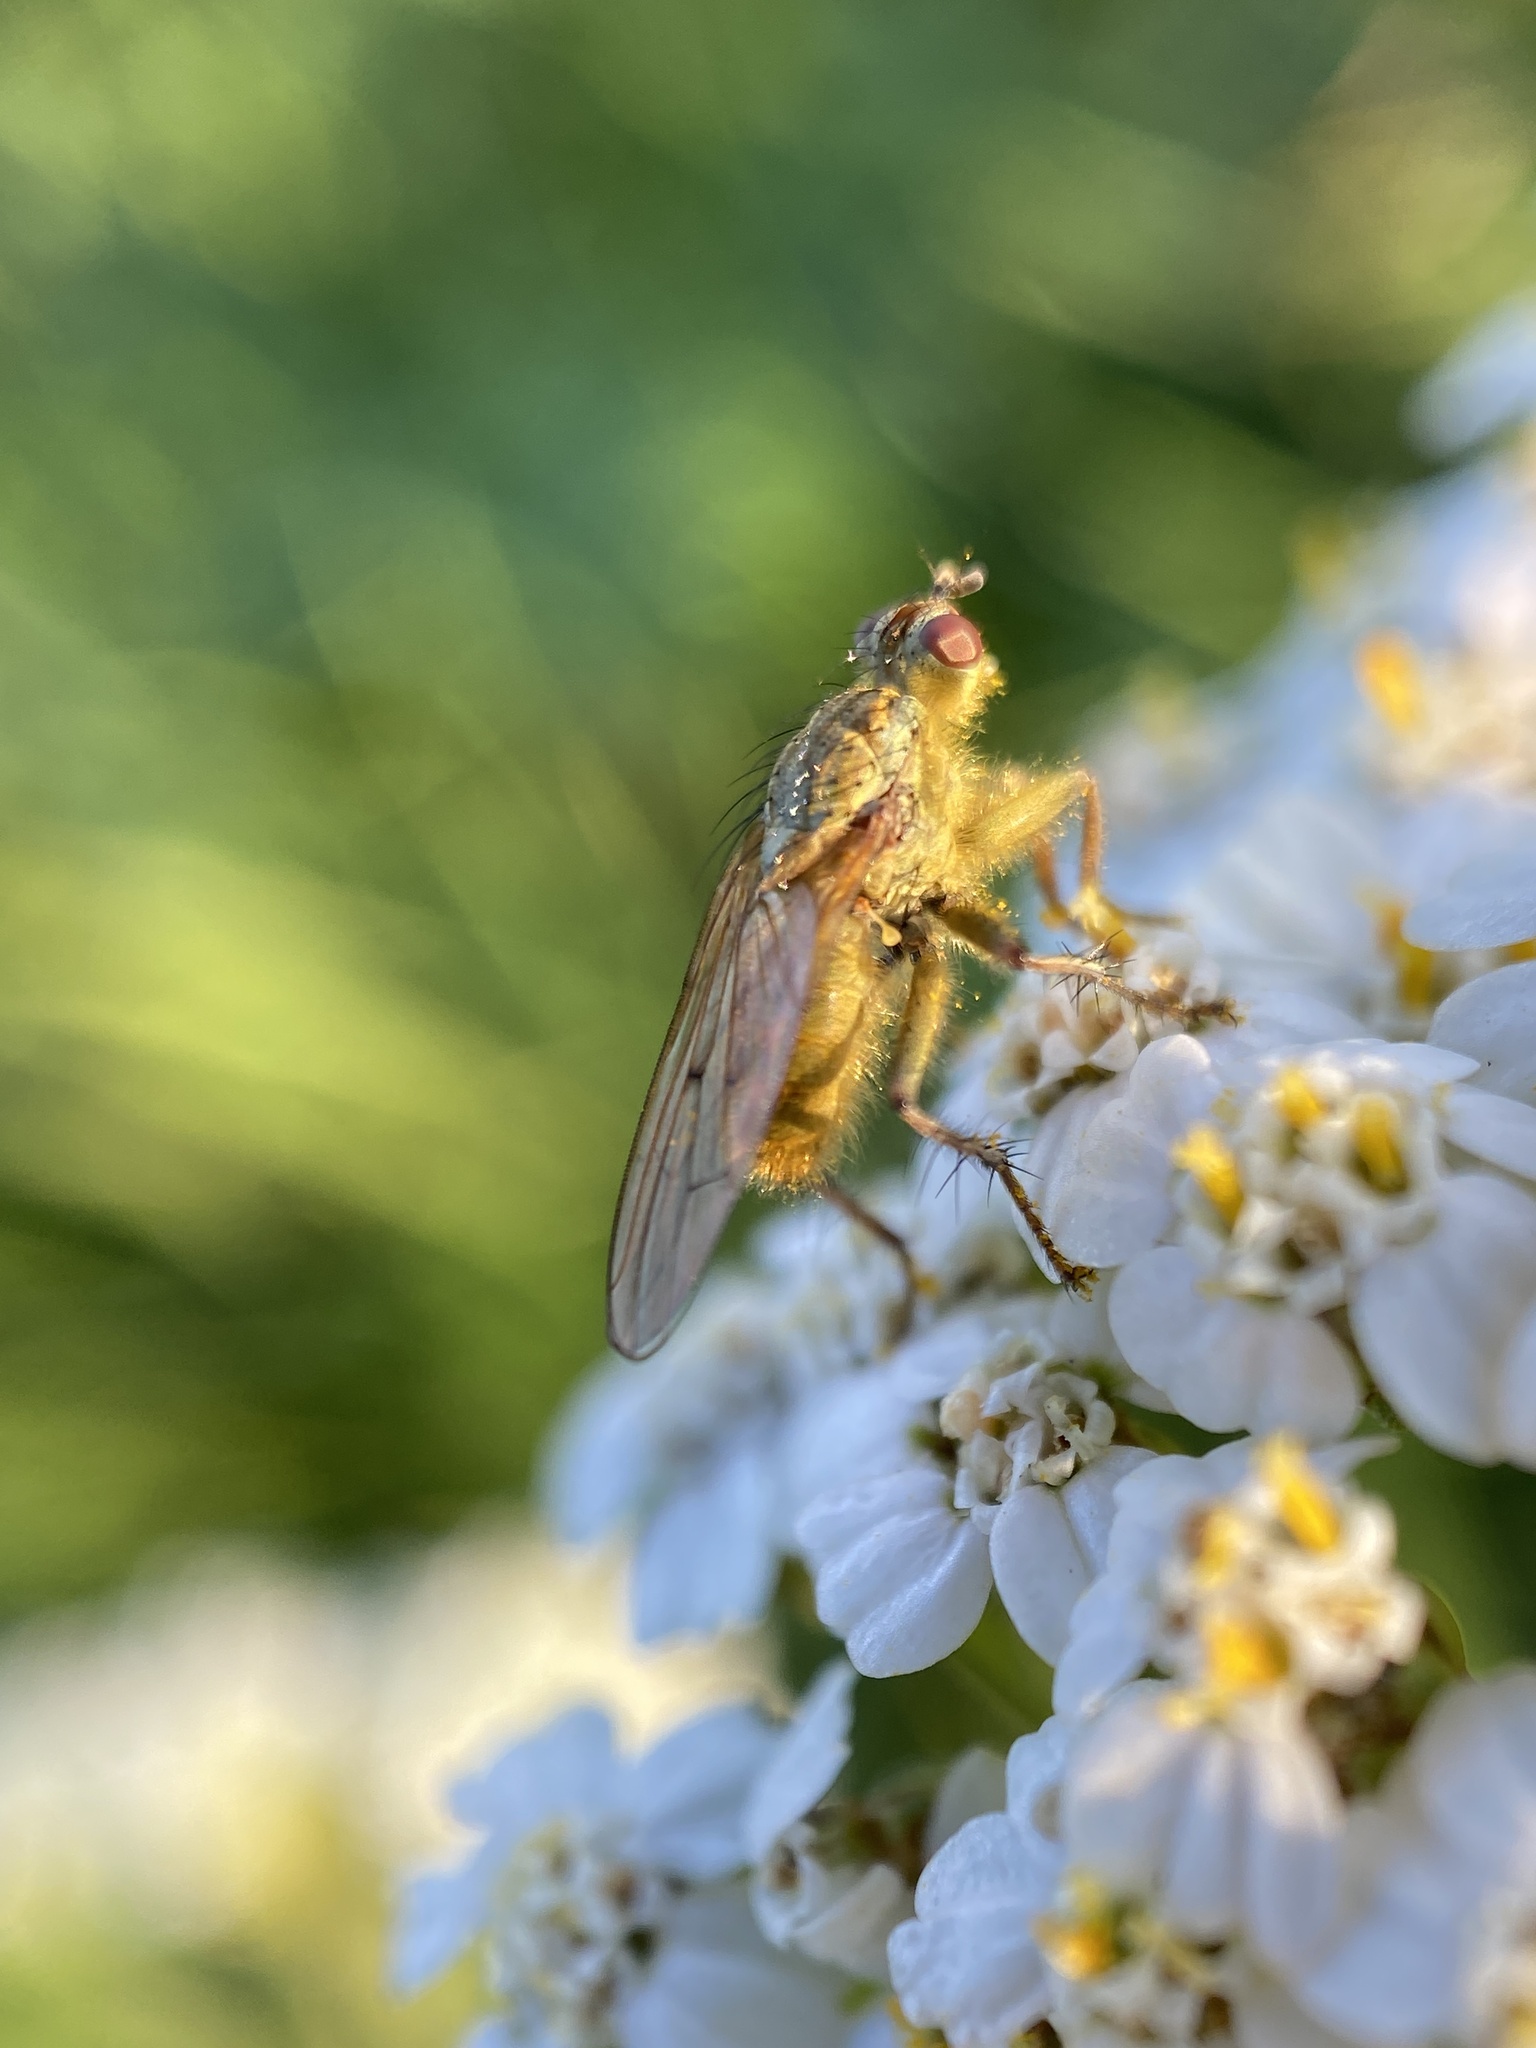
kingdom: Animalia
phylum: Arthropoda
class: Insecta
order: Diptera
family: Scathophagidae
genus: Scathophaga
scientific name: Scathophaga stercoraria
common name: Yellow dung fly
